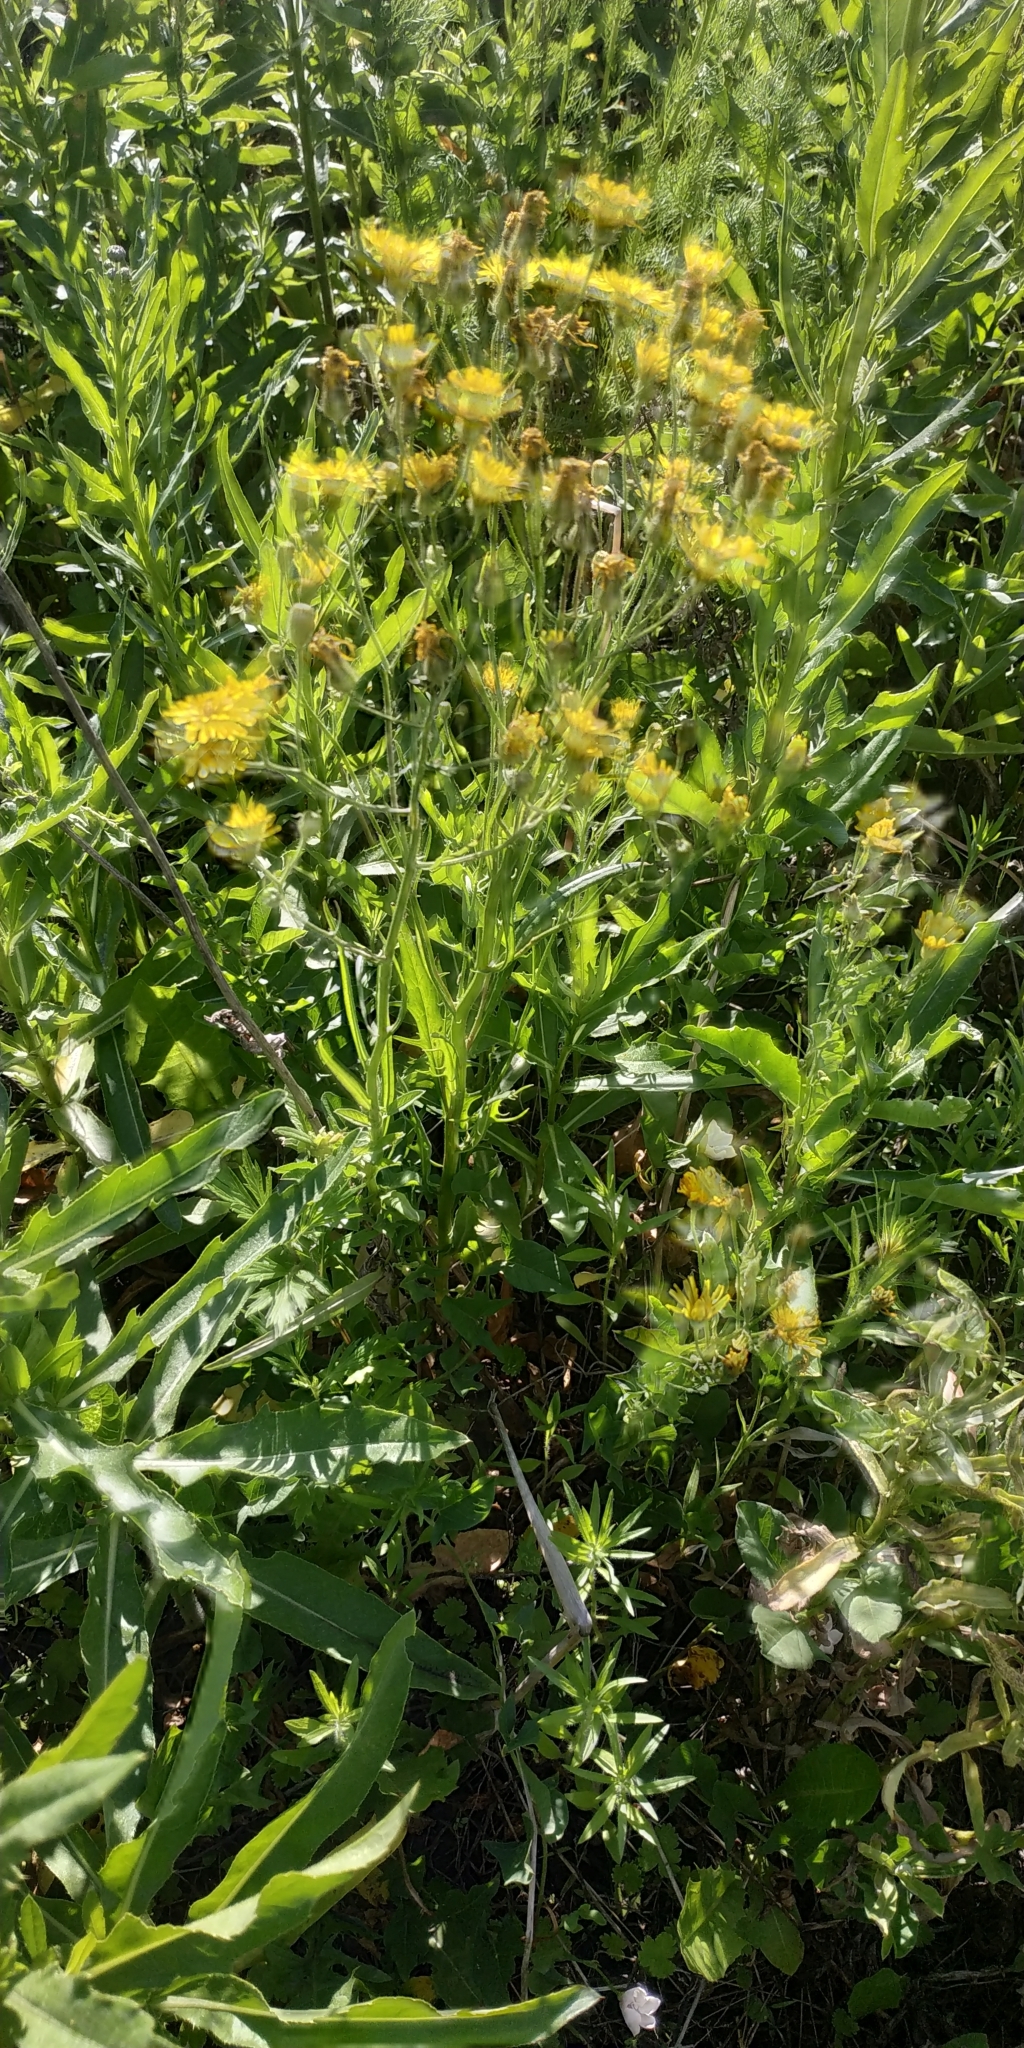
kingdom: Plantae
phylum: Tracheophyta
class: Magnoliopsida
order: Asterales
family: Asteraceae
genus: Crepis
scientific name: Crepis tectorum
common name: Narrow-leaved hawk's-beard
